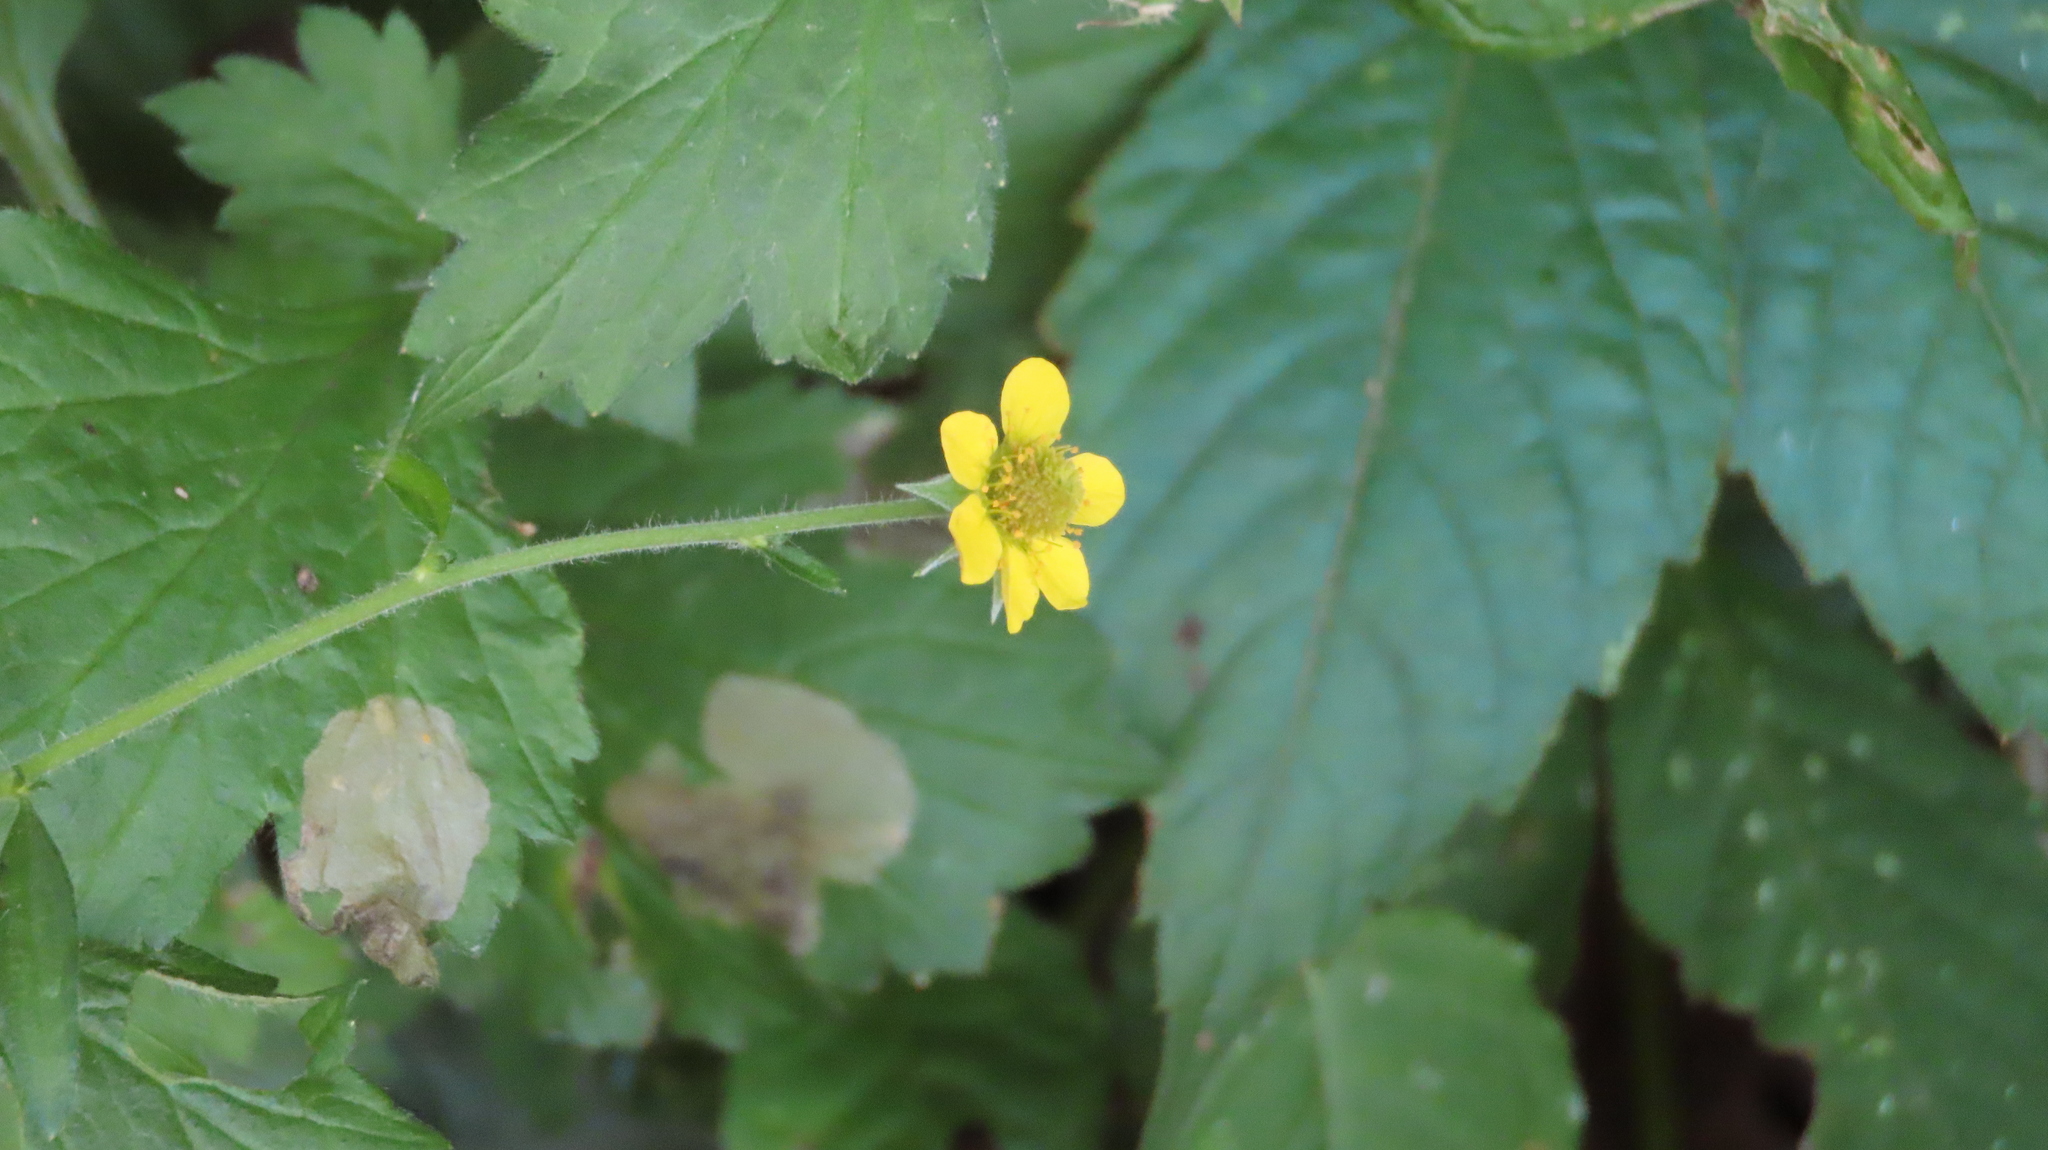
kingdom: Plantae
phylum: Tracheophyta
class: Magnoliopsida
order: Rosales
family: Rosaceae
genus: Geum
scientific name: Geum urbanum
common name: Wood avens
